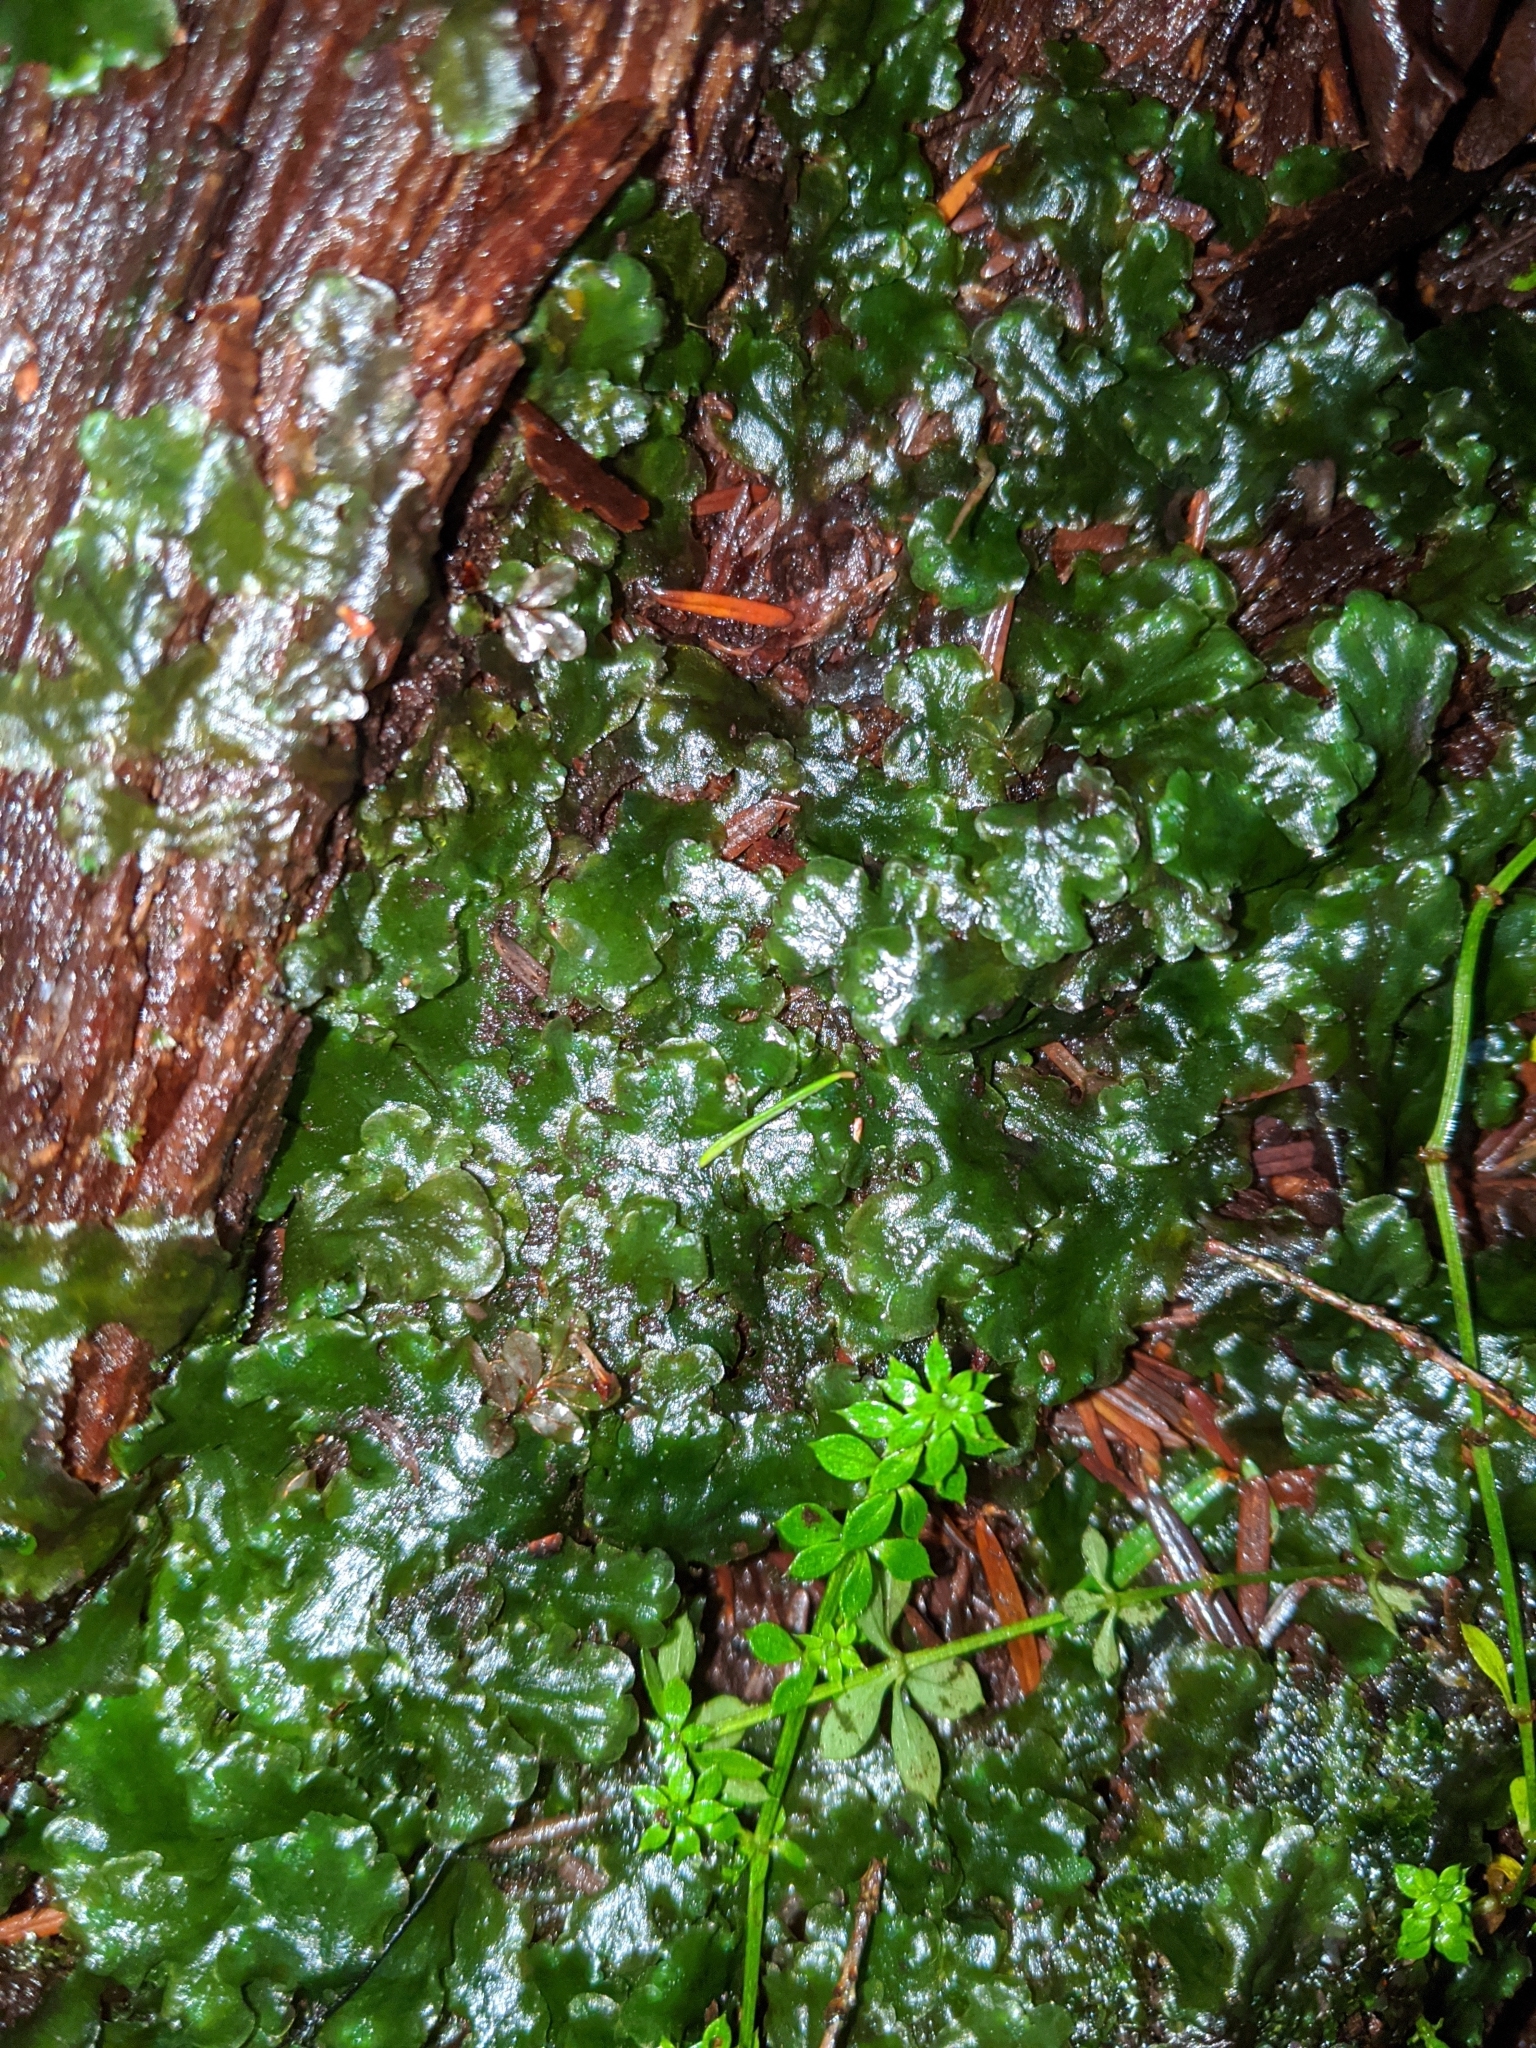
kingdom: Plantae
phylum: Marchantiophyta
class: Jungermanniopsida
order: Pelliales
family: Pelliaceae
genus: Pellia
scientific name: Pellia neesiana
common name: Nees  pellia
